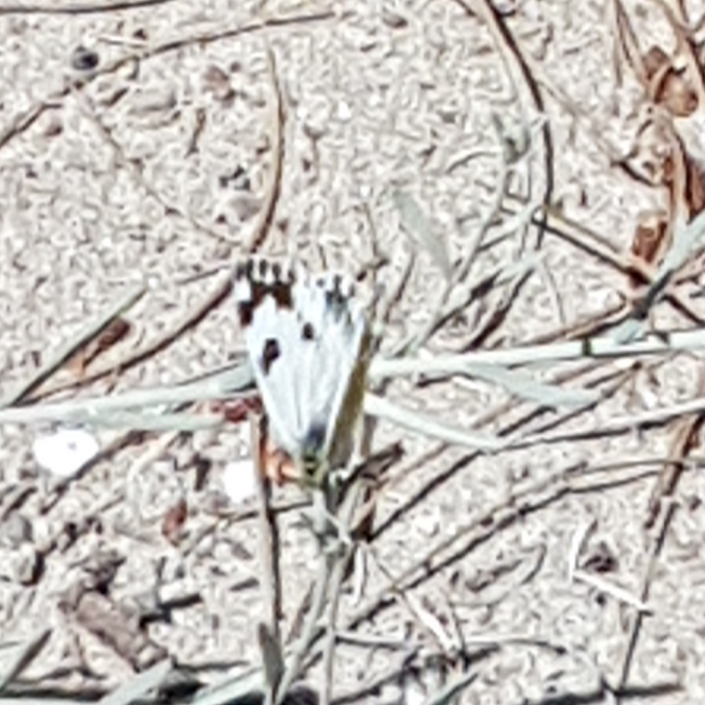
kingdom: Animalia
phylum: Arthropoda
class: Insecta
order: Lepidoptera
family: Pieridae
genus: Pontia
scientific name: Pontia daplidice
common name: Bath white
